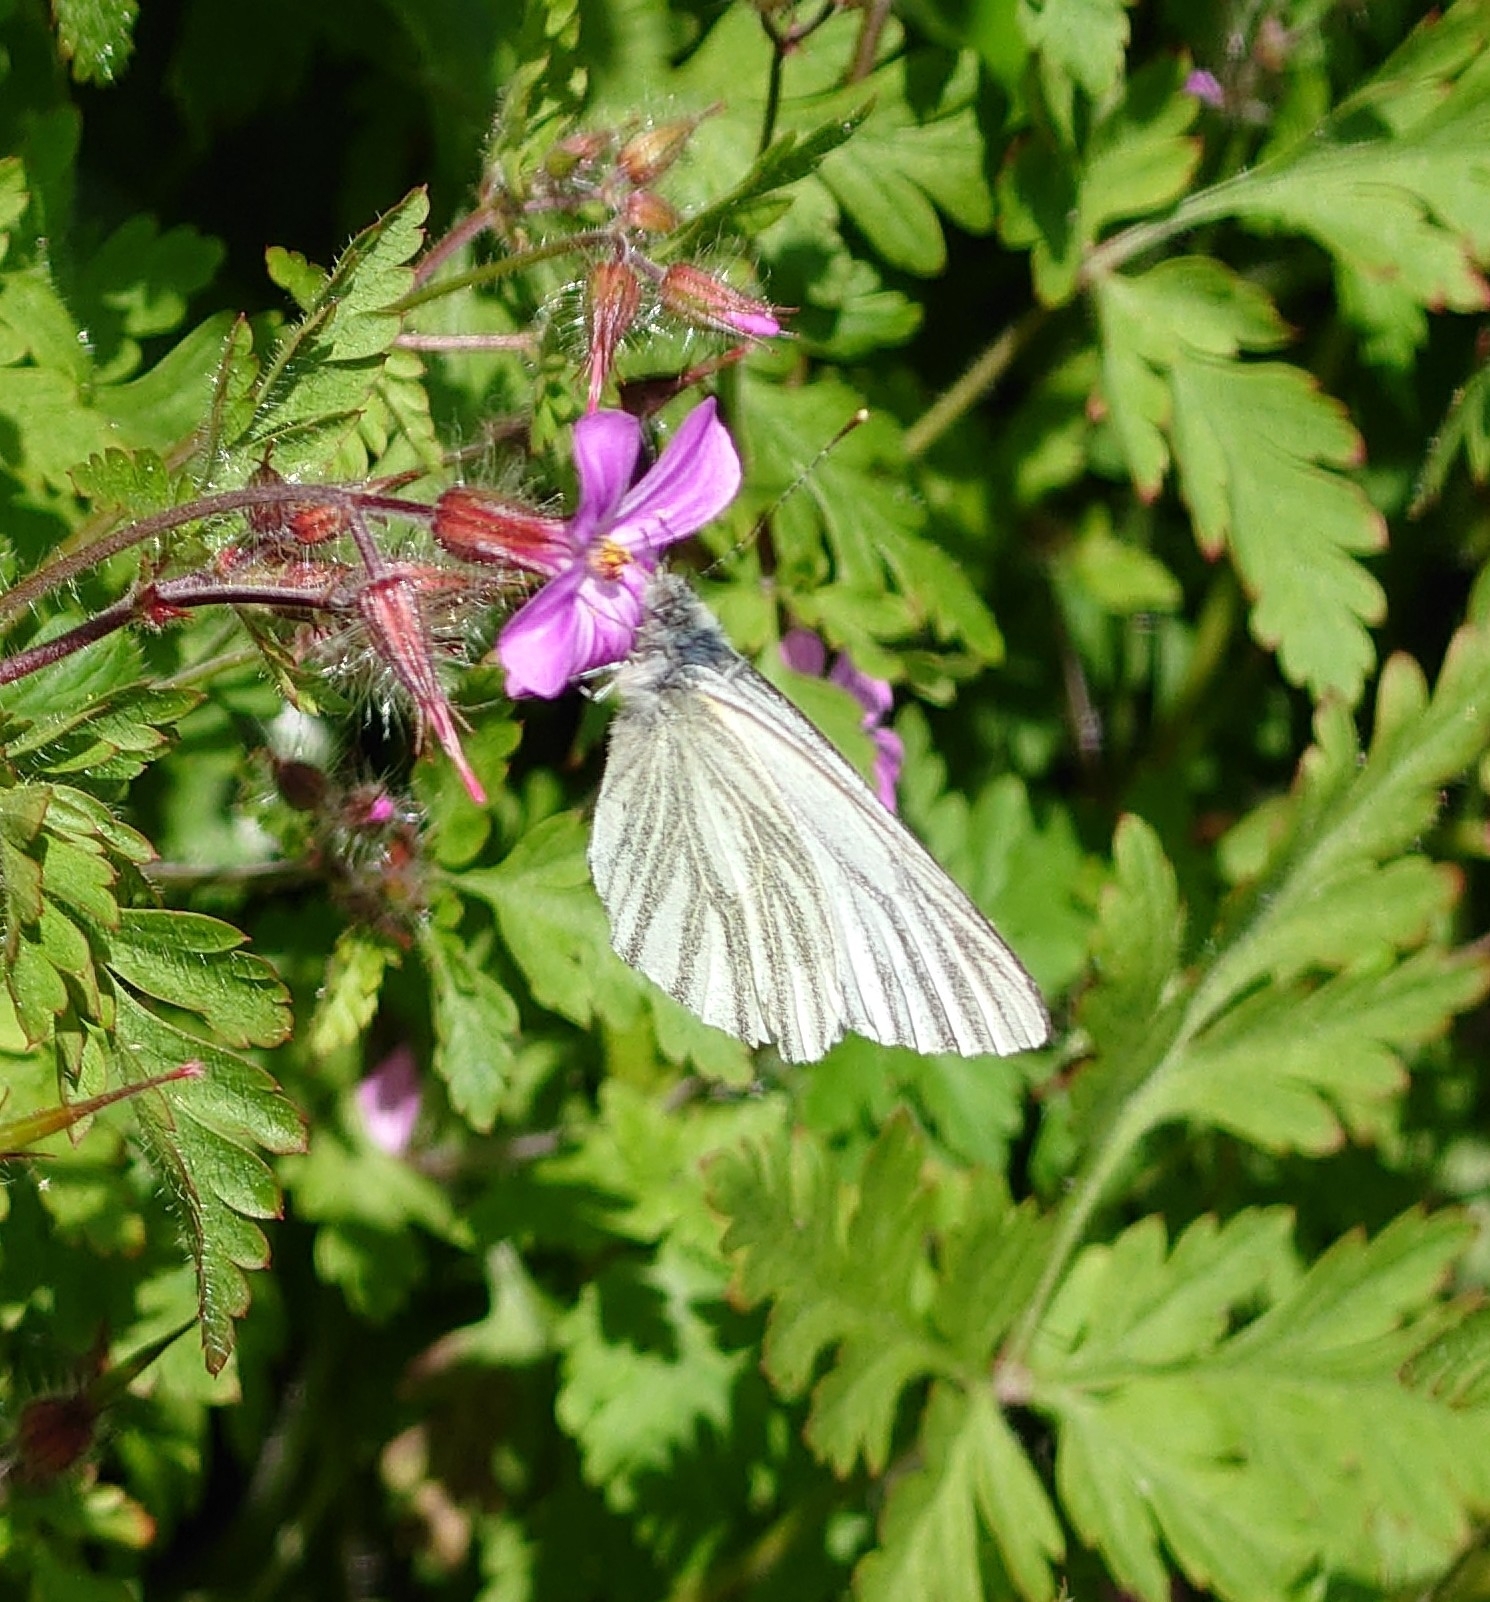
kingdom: Animalia
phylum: Arthropoda
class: Insecta
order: Lepidoptera
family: Pieridae
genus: Pieris
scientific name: Pieris napi
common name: Green-veined white
